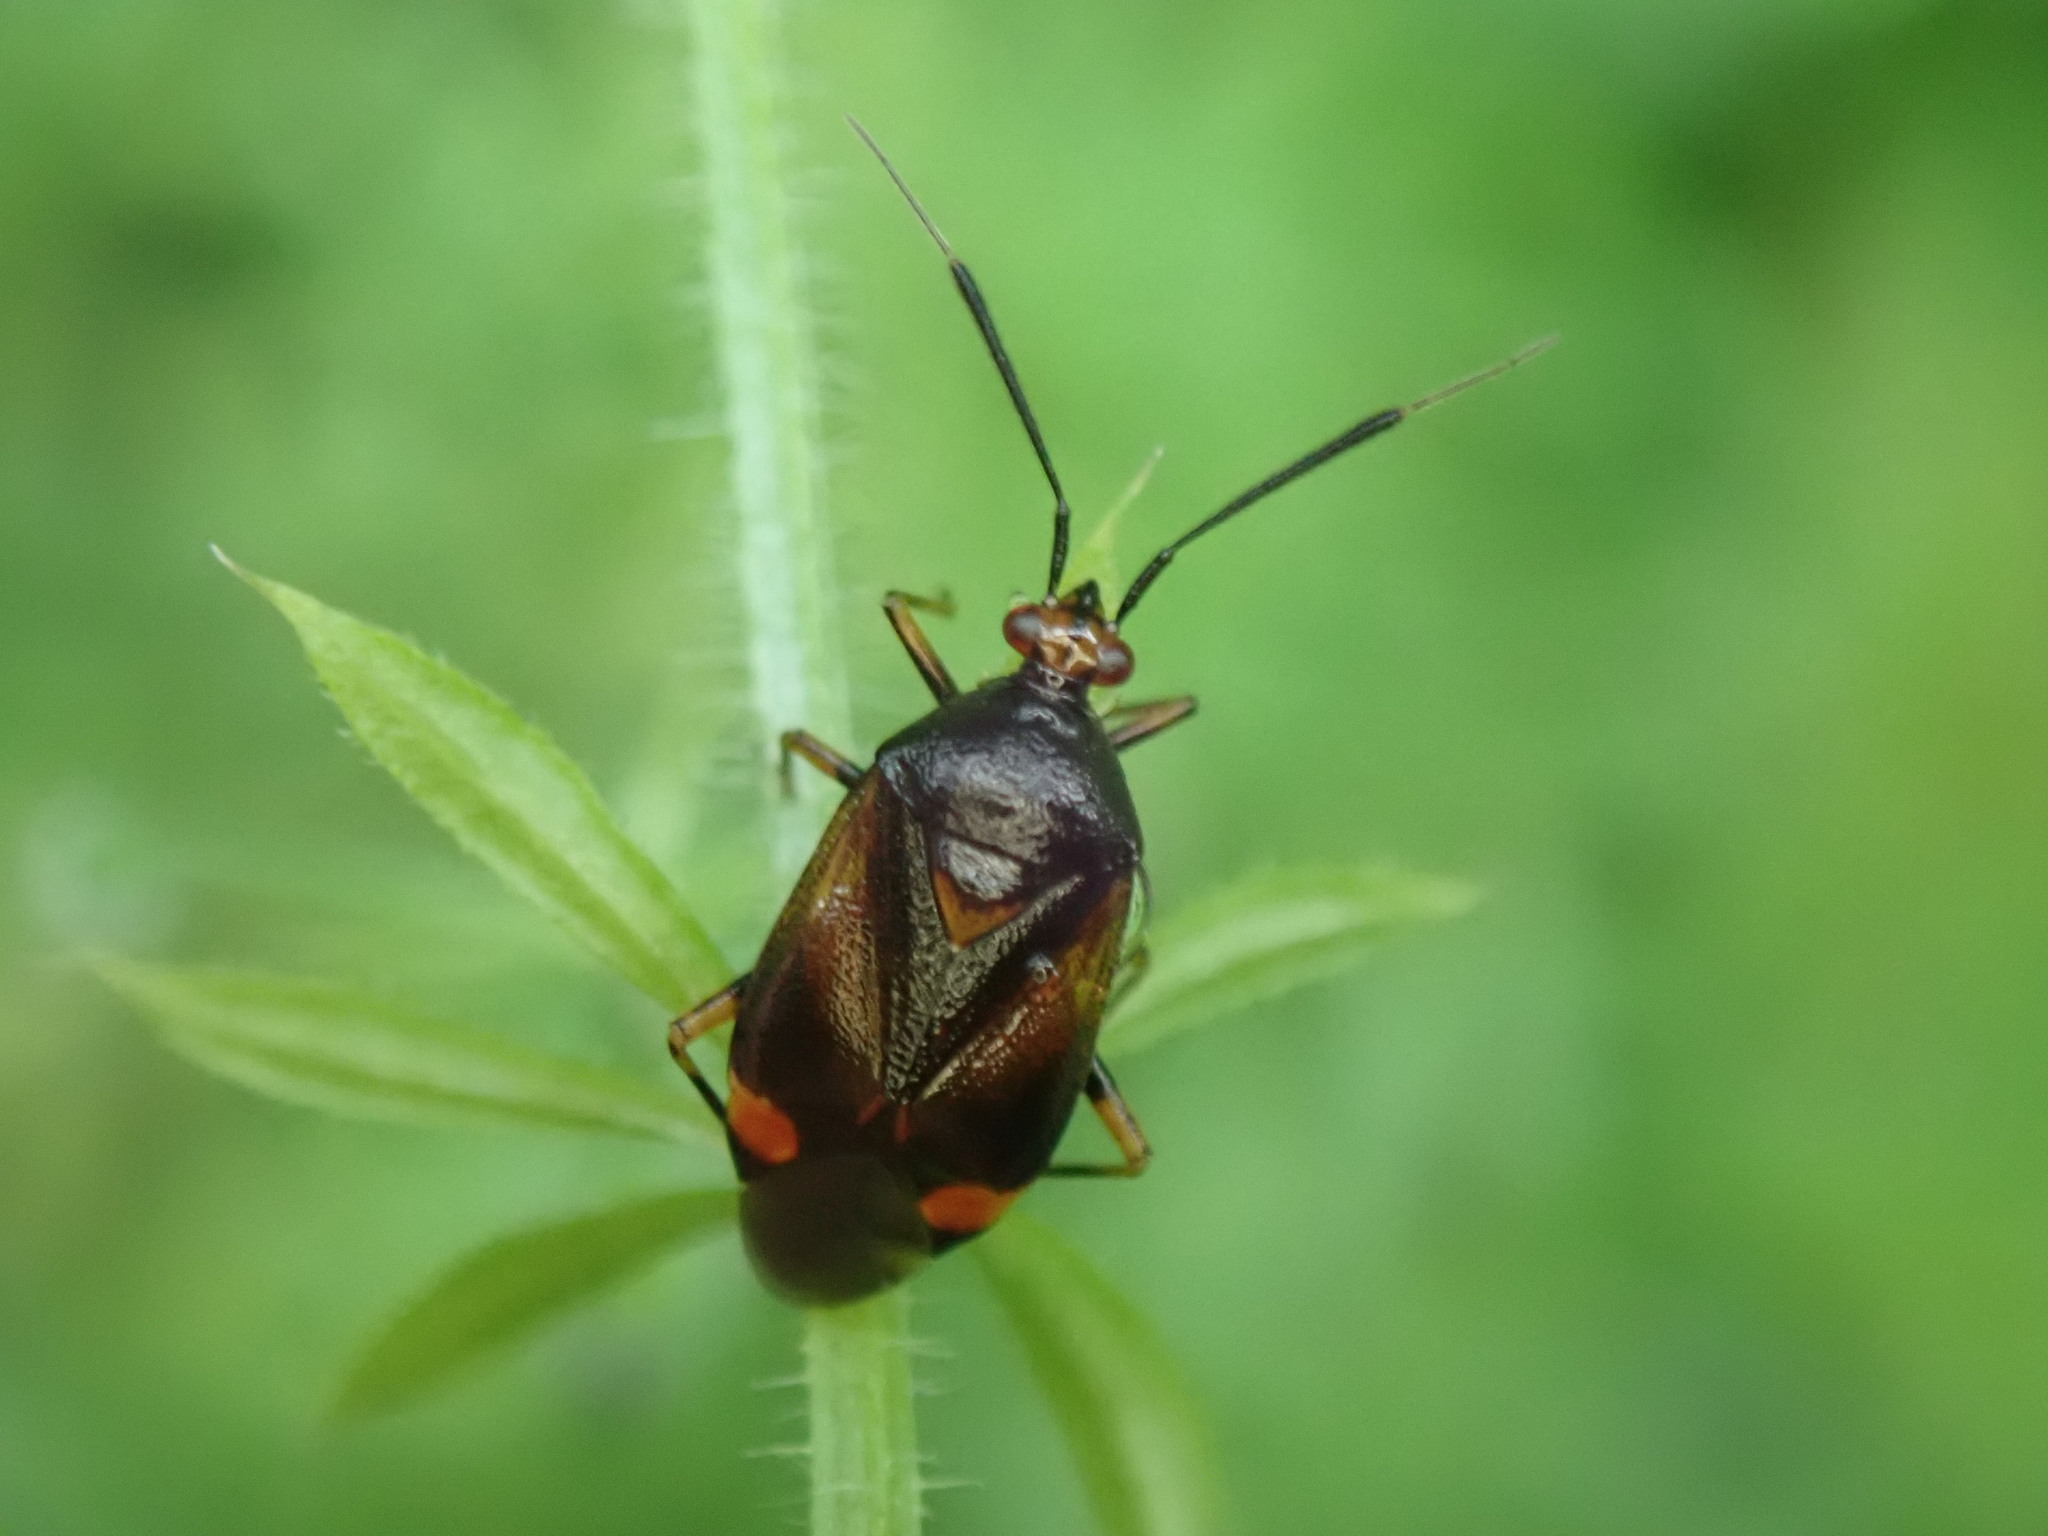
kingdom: Animalia
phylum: Arthropoda
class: Insecta
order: Hemiptera
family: Miridae
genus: Deraeocoris
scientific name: Deraeocoris ruber
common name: Plant bug
